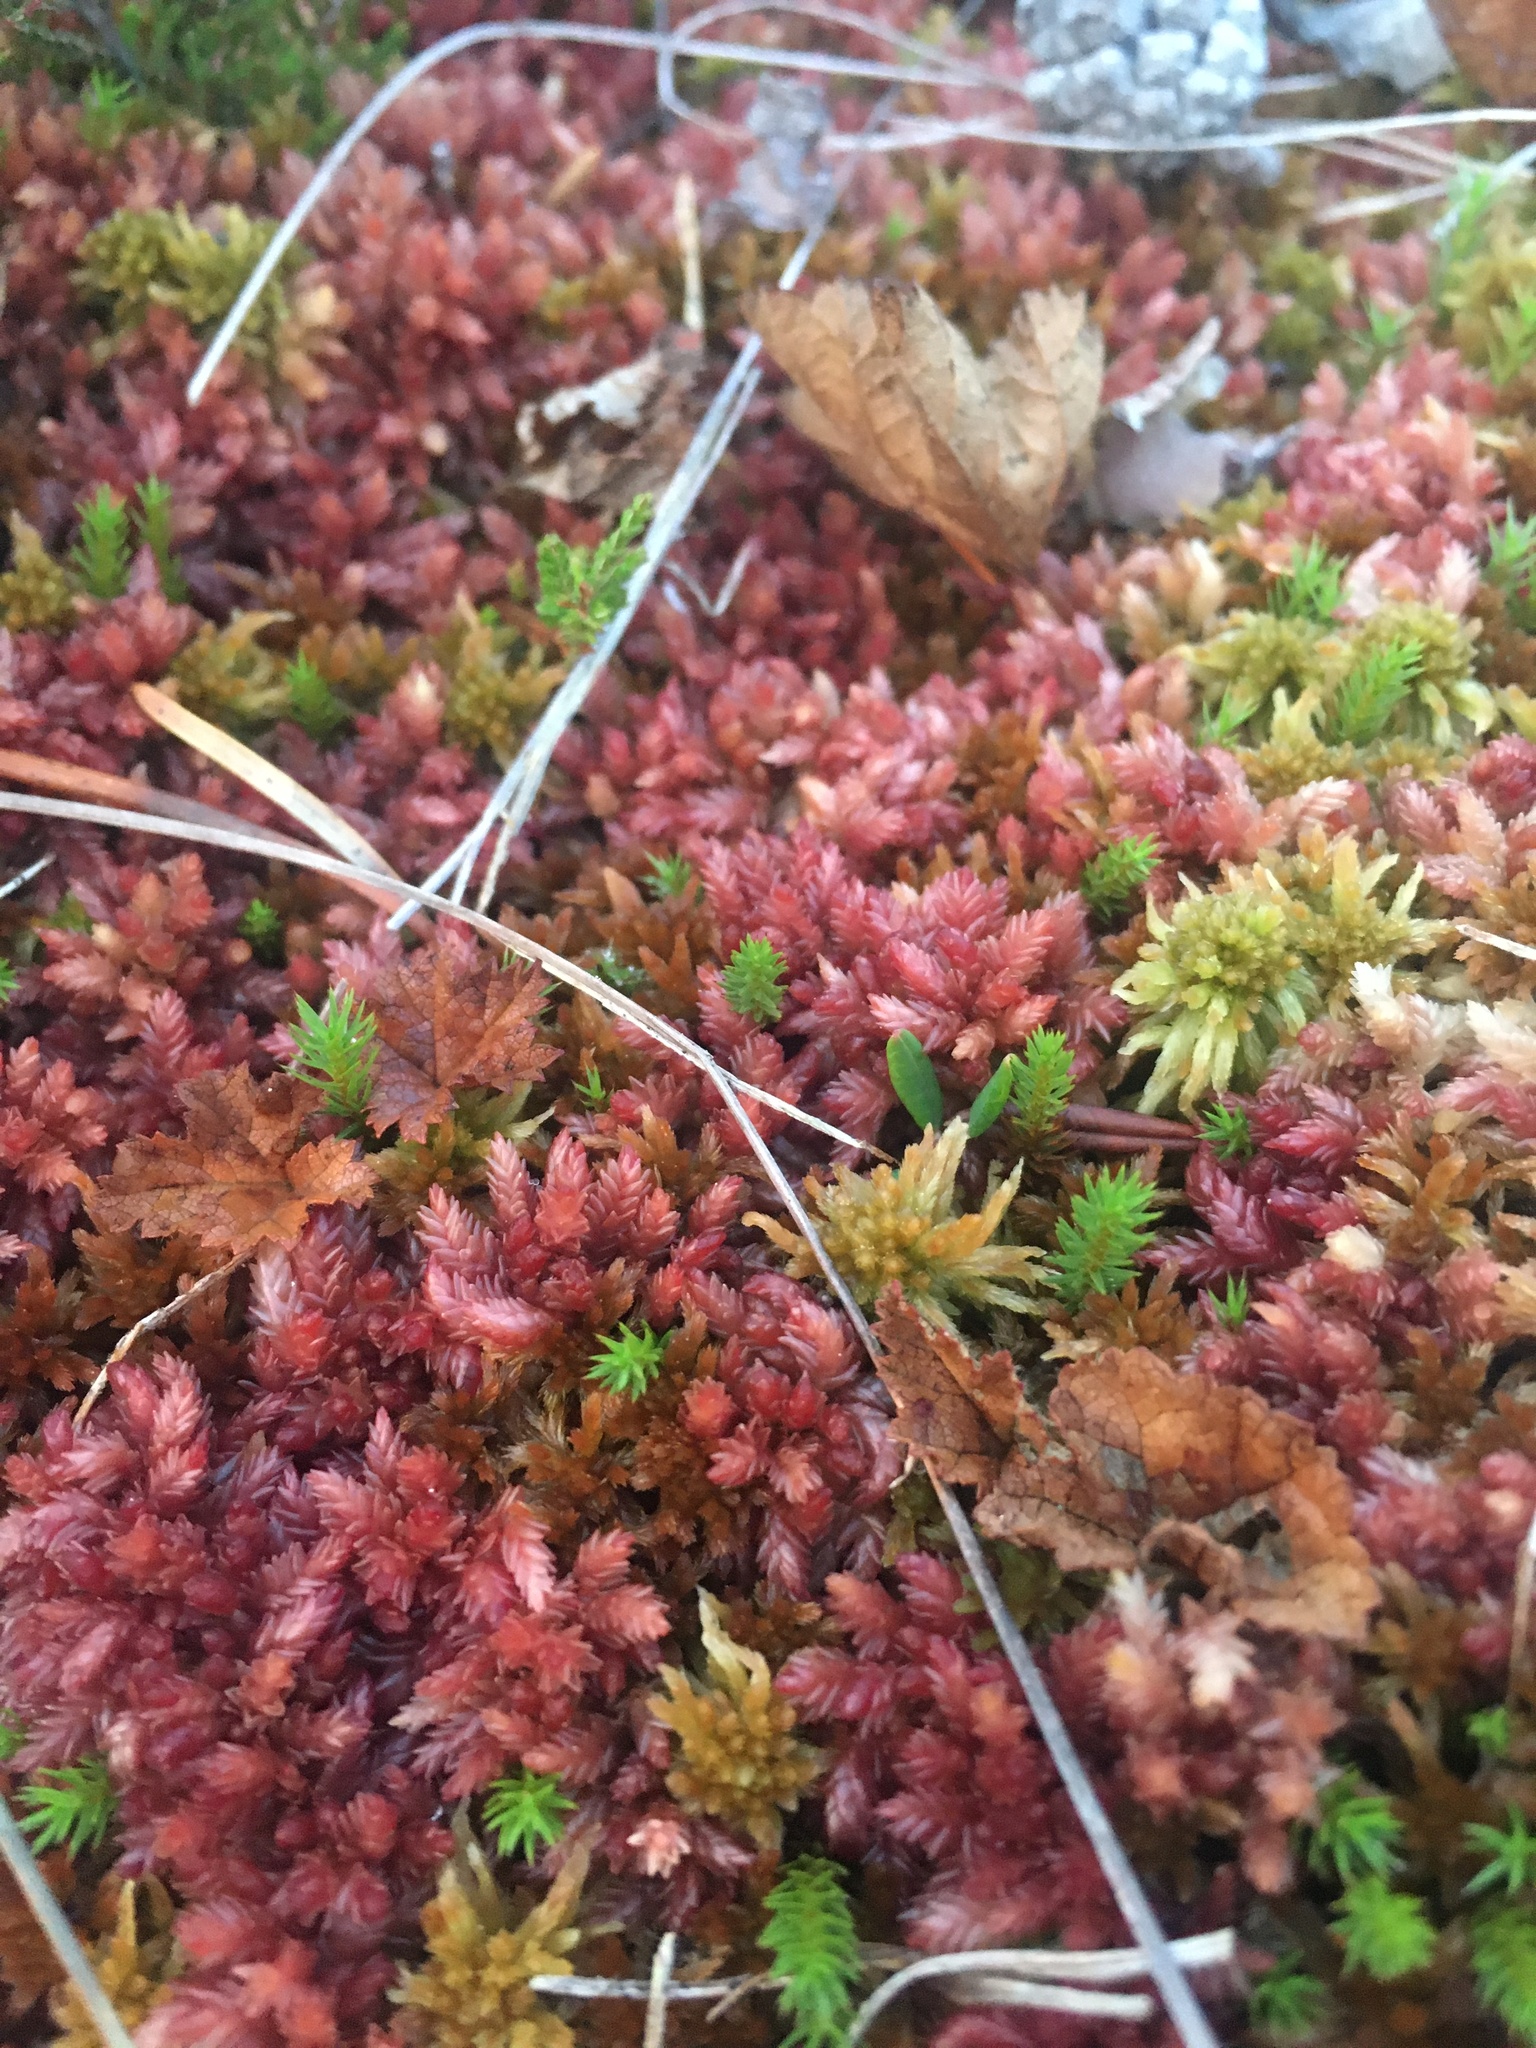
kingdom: Plantae
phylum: Bryophyta
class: Sphagnopsida
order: Sphagnales
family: Sphagnaceae
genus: Sphagnum
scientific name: Sphagnum medium
